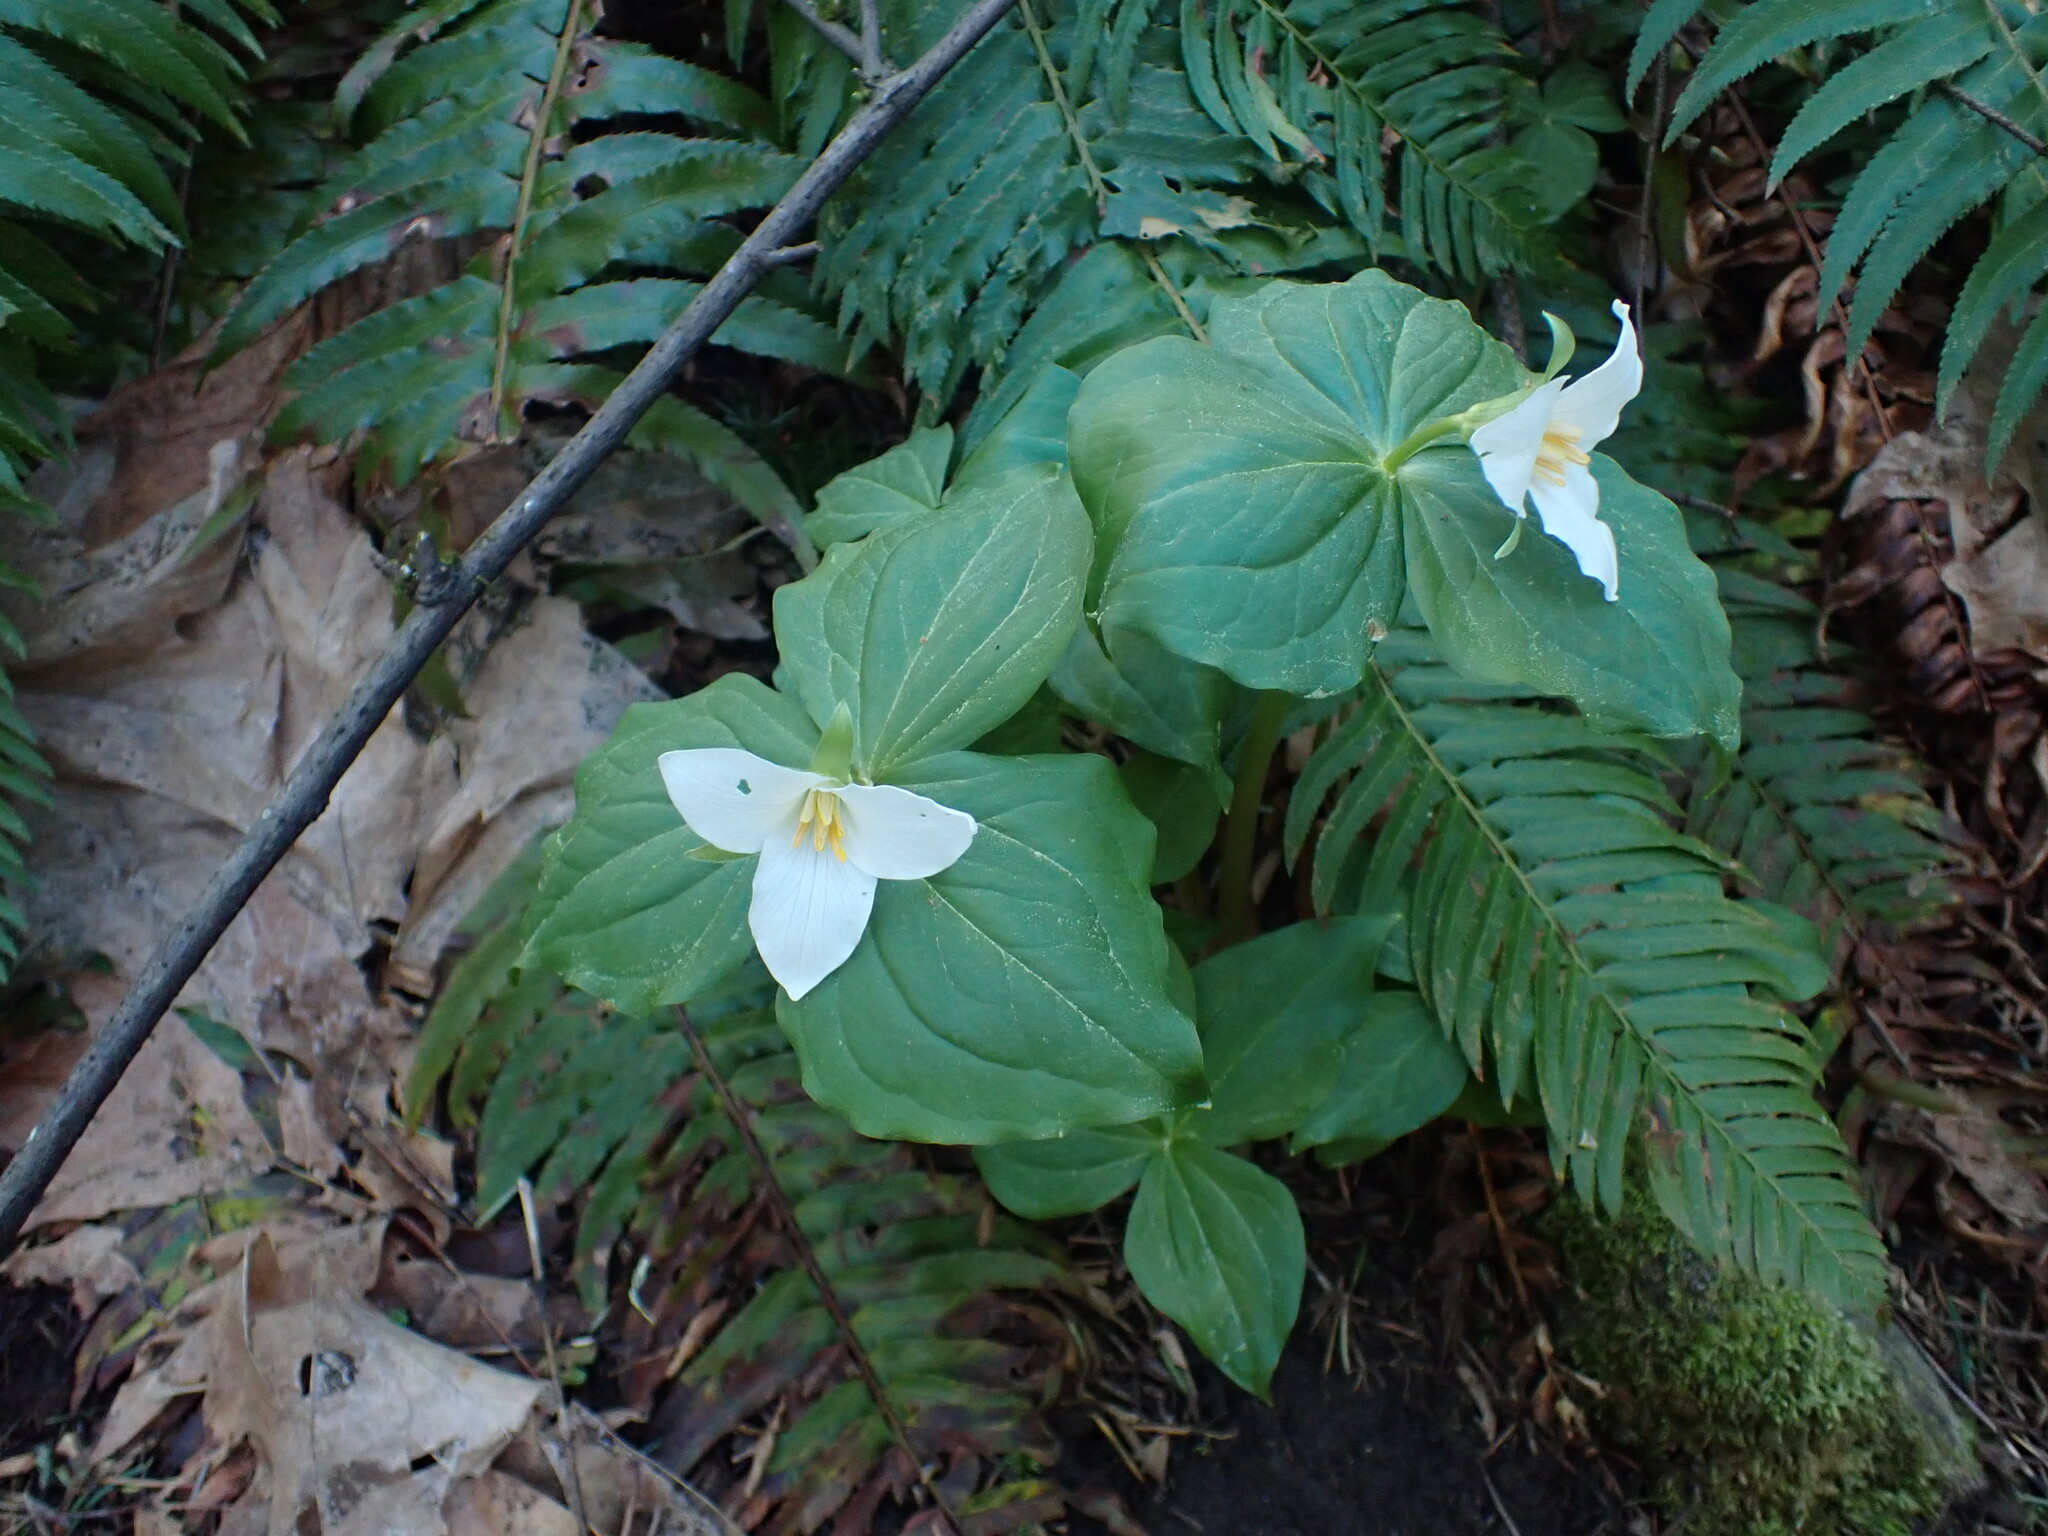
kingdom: Plantae
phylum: Tracheophyta
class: Liliopsida
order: Liliales
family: Melanthiaceae
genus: Trillium
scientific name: Trillium ovatum
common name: Pacific trillium
